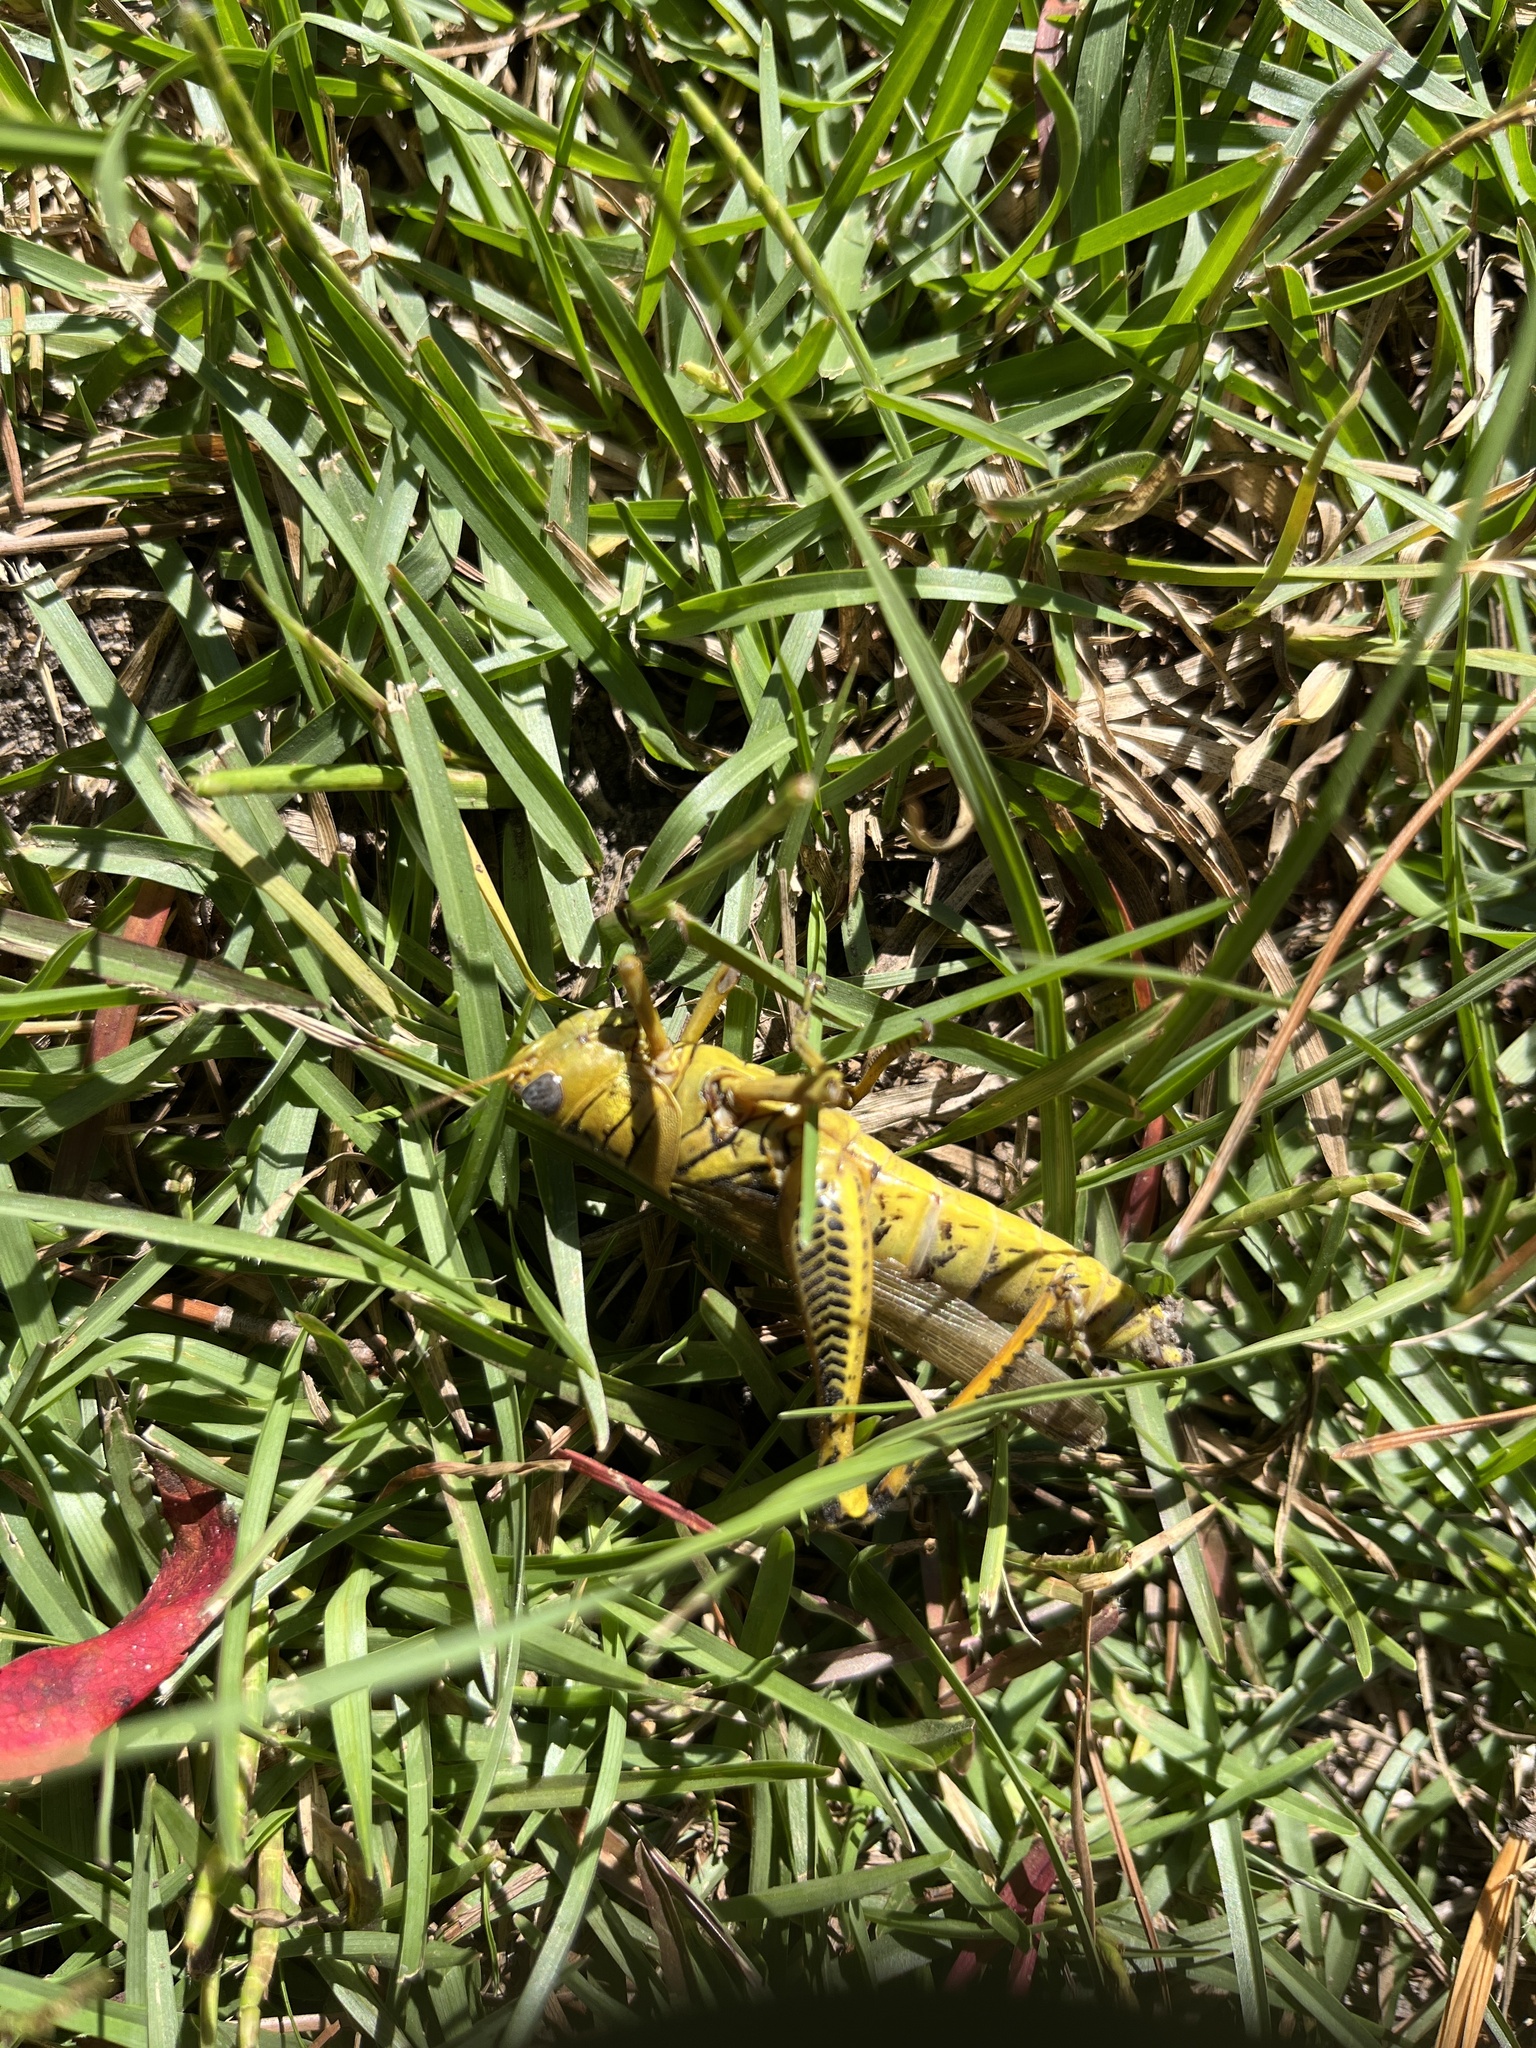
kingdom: Animalia
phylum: Arthropoda
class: Insecta
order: Orthoptera
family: Acrididae
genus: Melanoplus
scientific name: Melanoplus differentialis
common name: Differential grasshopper
